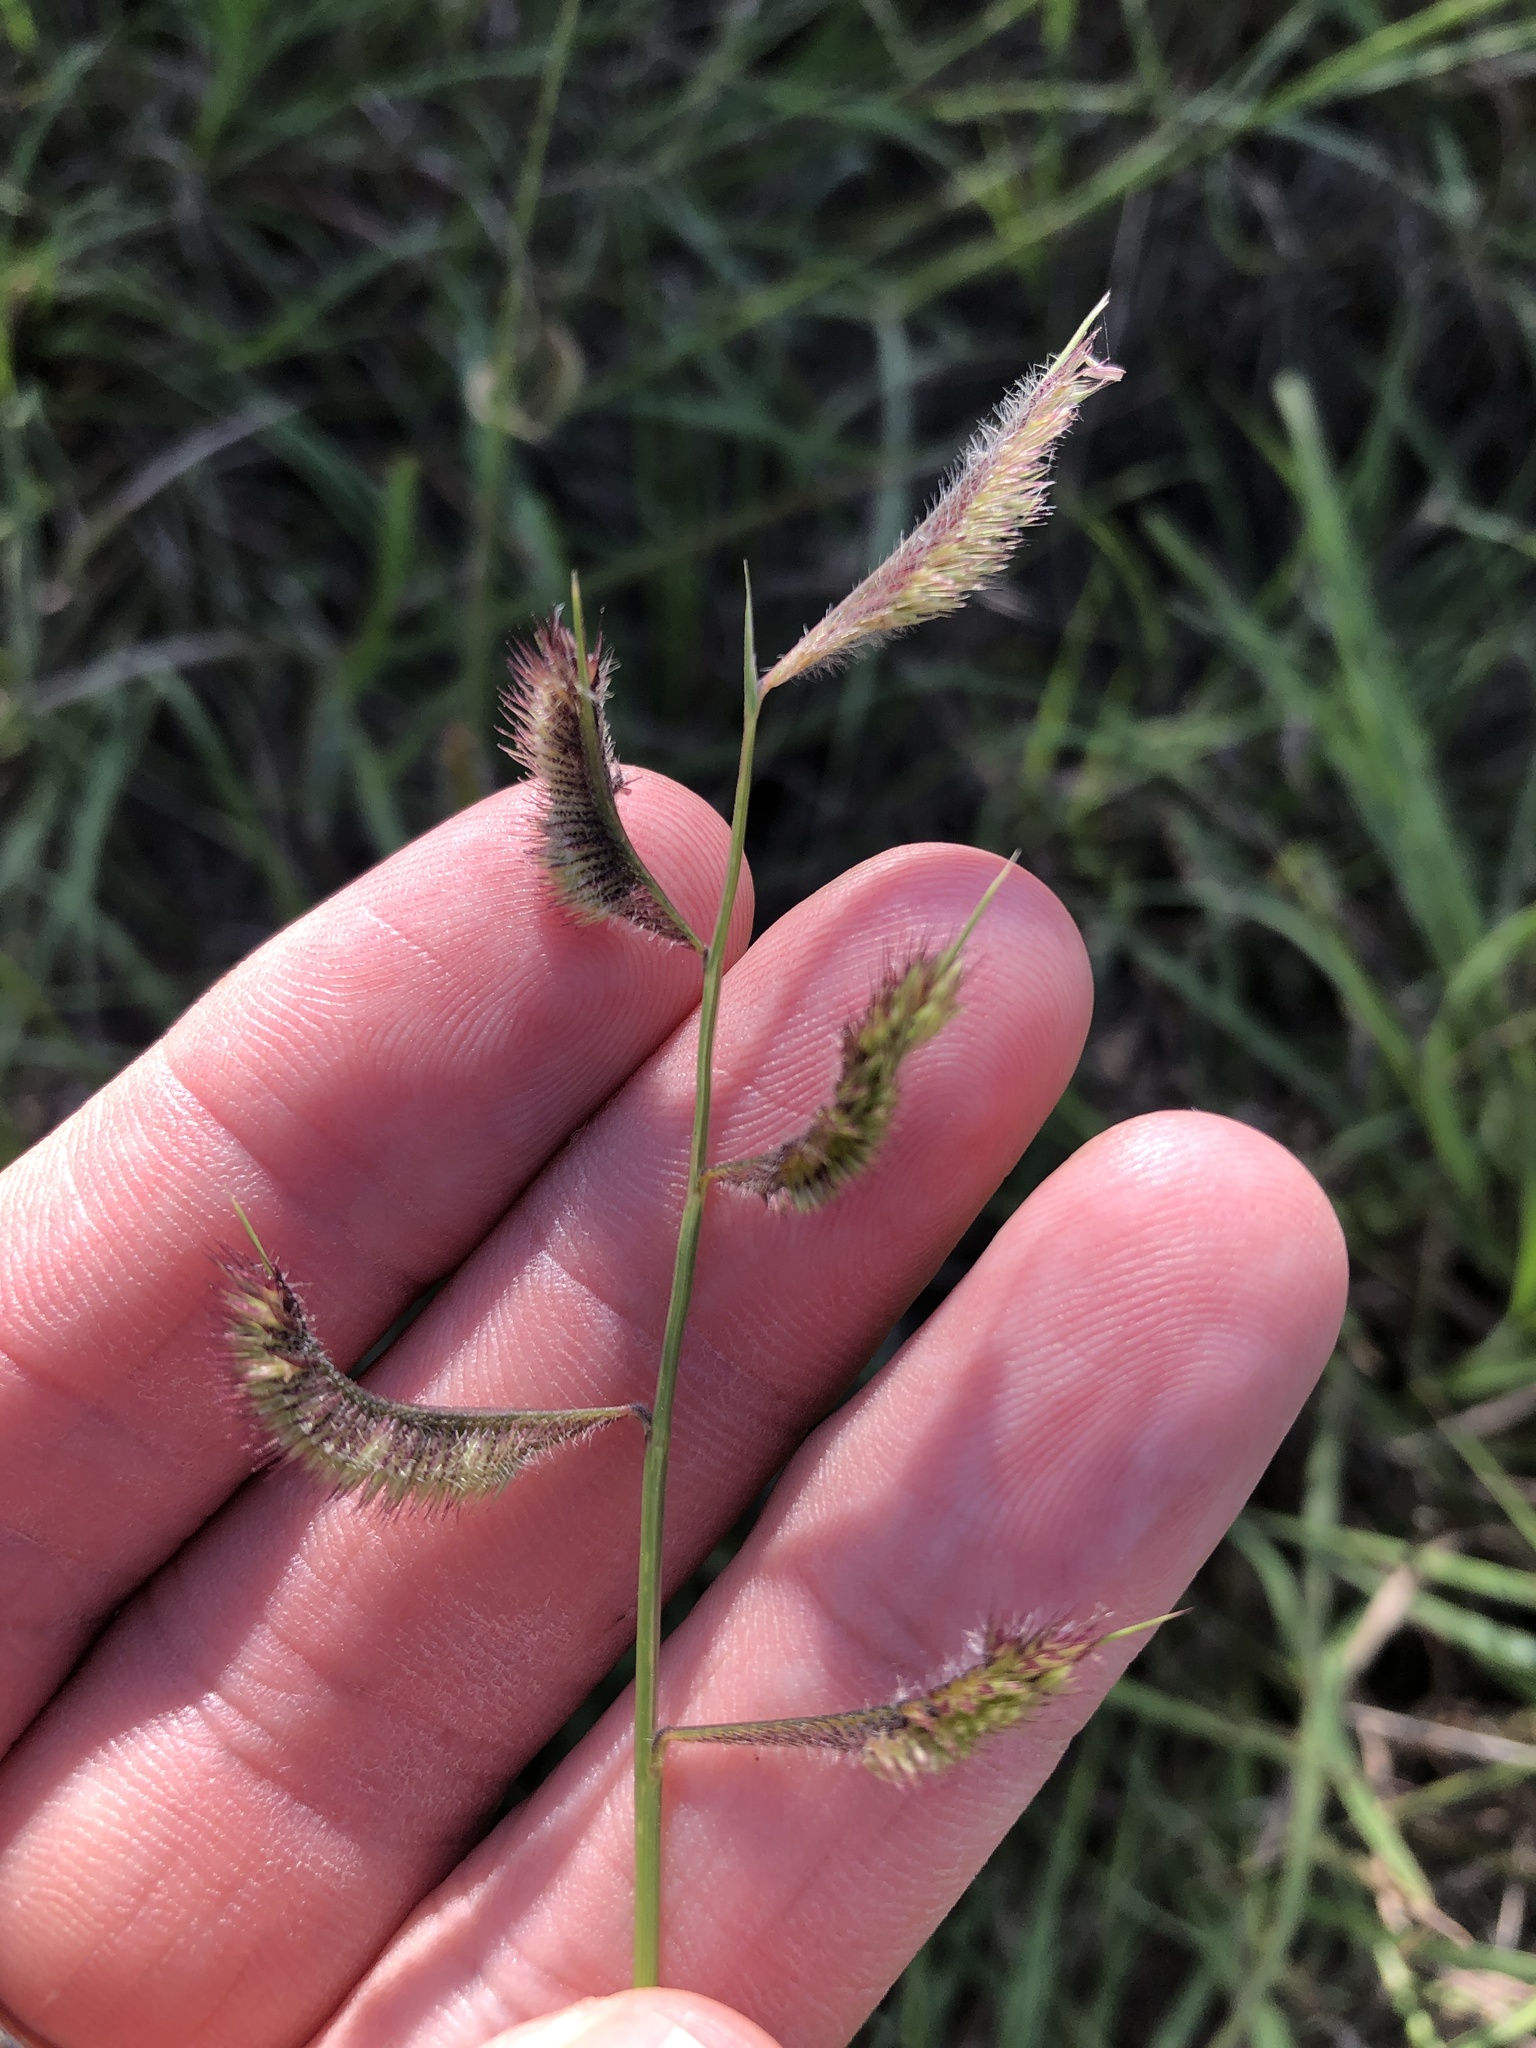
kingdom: Plantae
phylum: Tracheophyta
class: Liliopsida
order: Poales
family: Poaceae
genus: Bouteloua
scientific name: Bouteloua hirsuta
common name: Hairy grama
